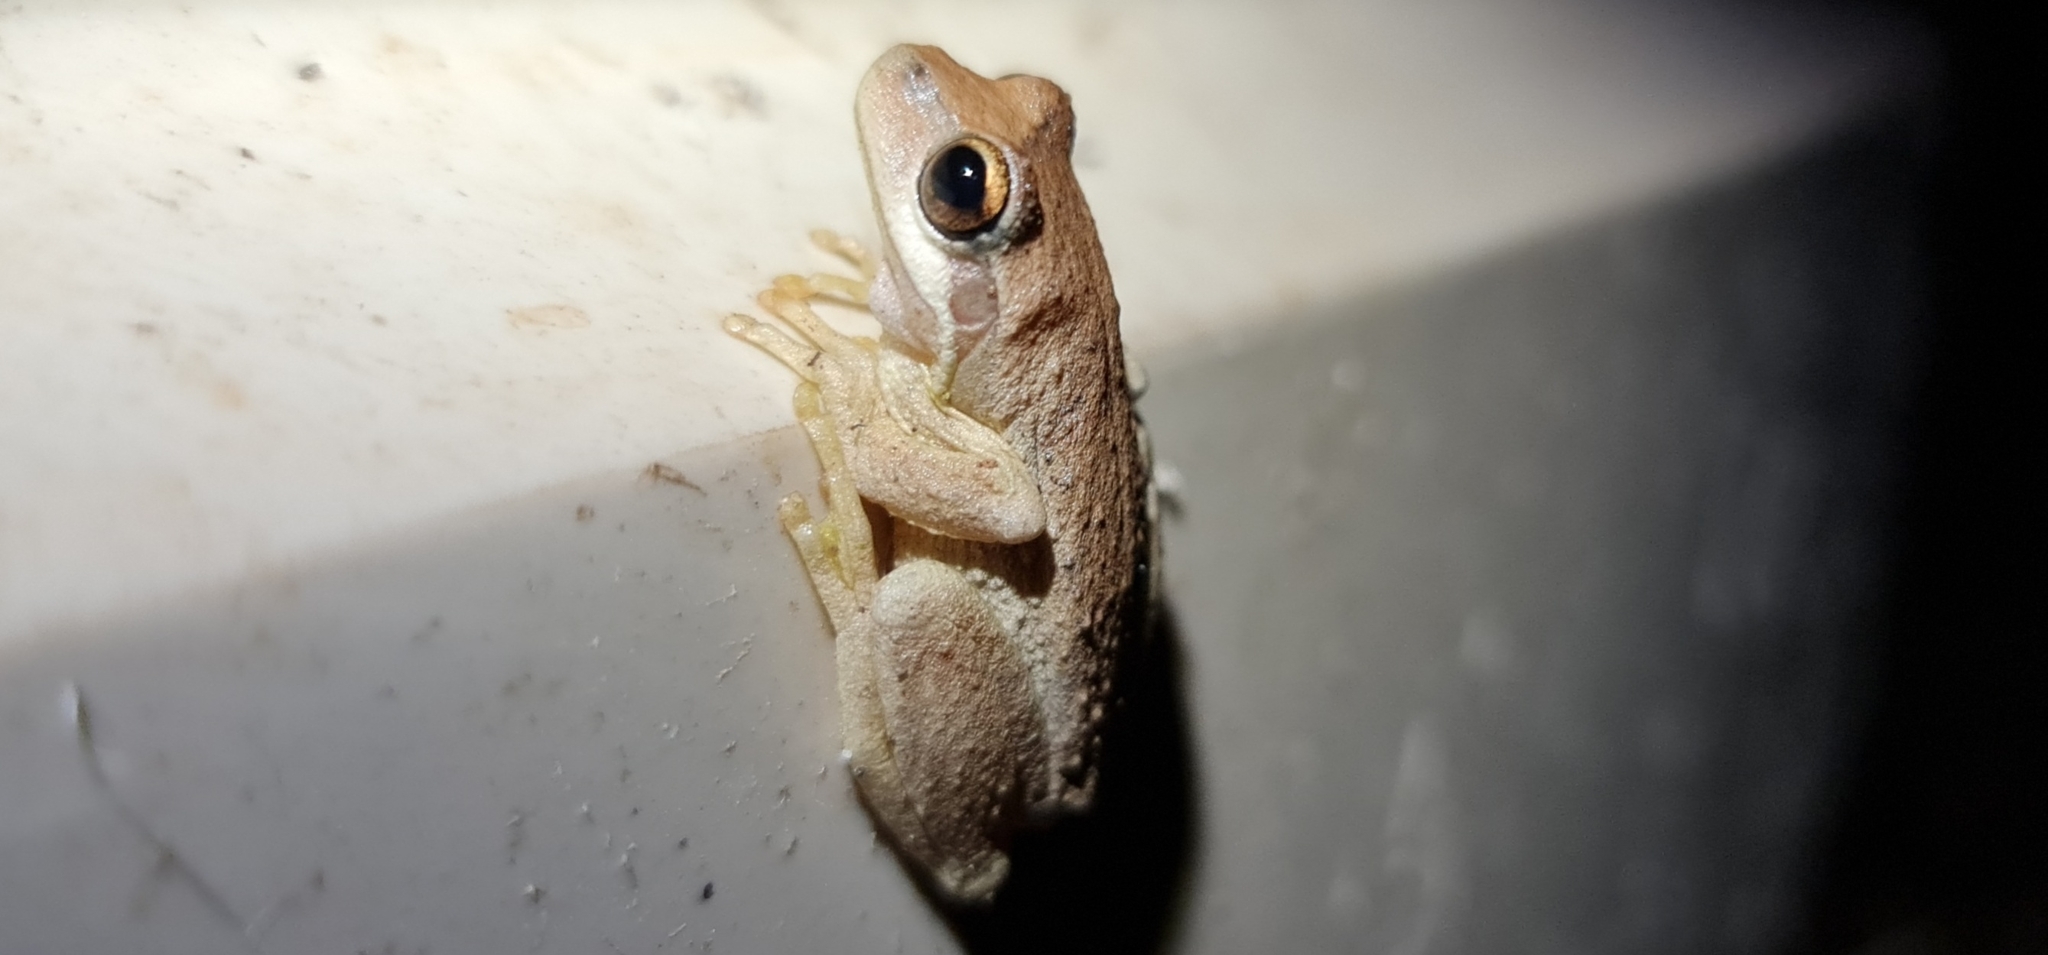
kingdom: Animalia
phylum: Chordata
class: Amphibia
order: Anura
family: Pelodryadidae
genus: Litoria
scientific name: Litoria
